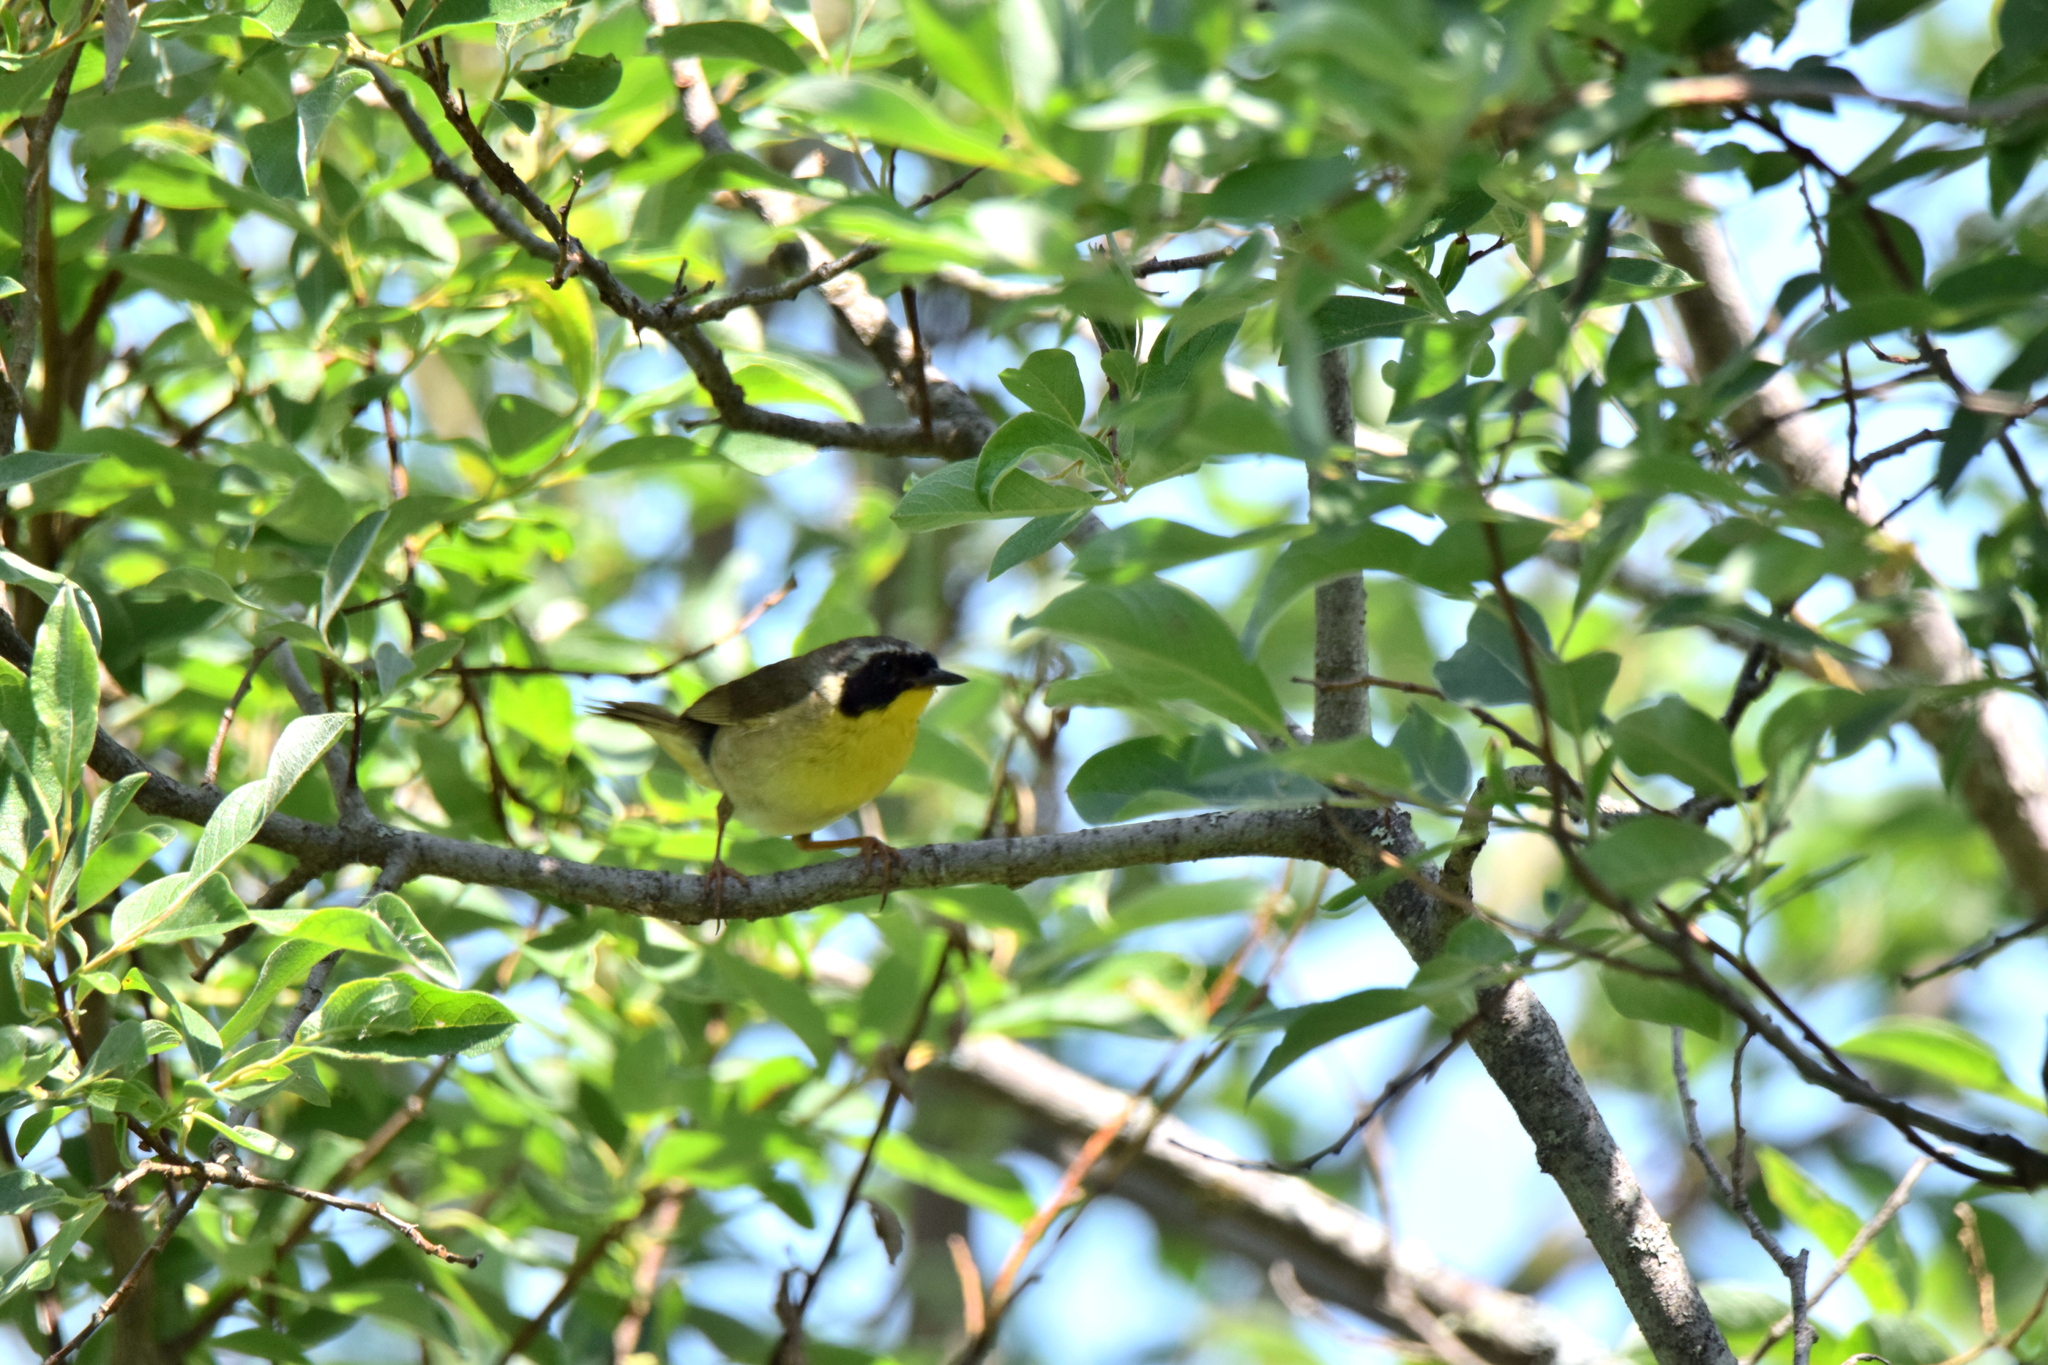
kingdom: Animalia
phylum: Chordata
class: Aves
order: Passeriformes
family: Parulidae
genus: Geothlypis
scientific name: Geothlypis trichas
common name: Common yellowthroat
